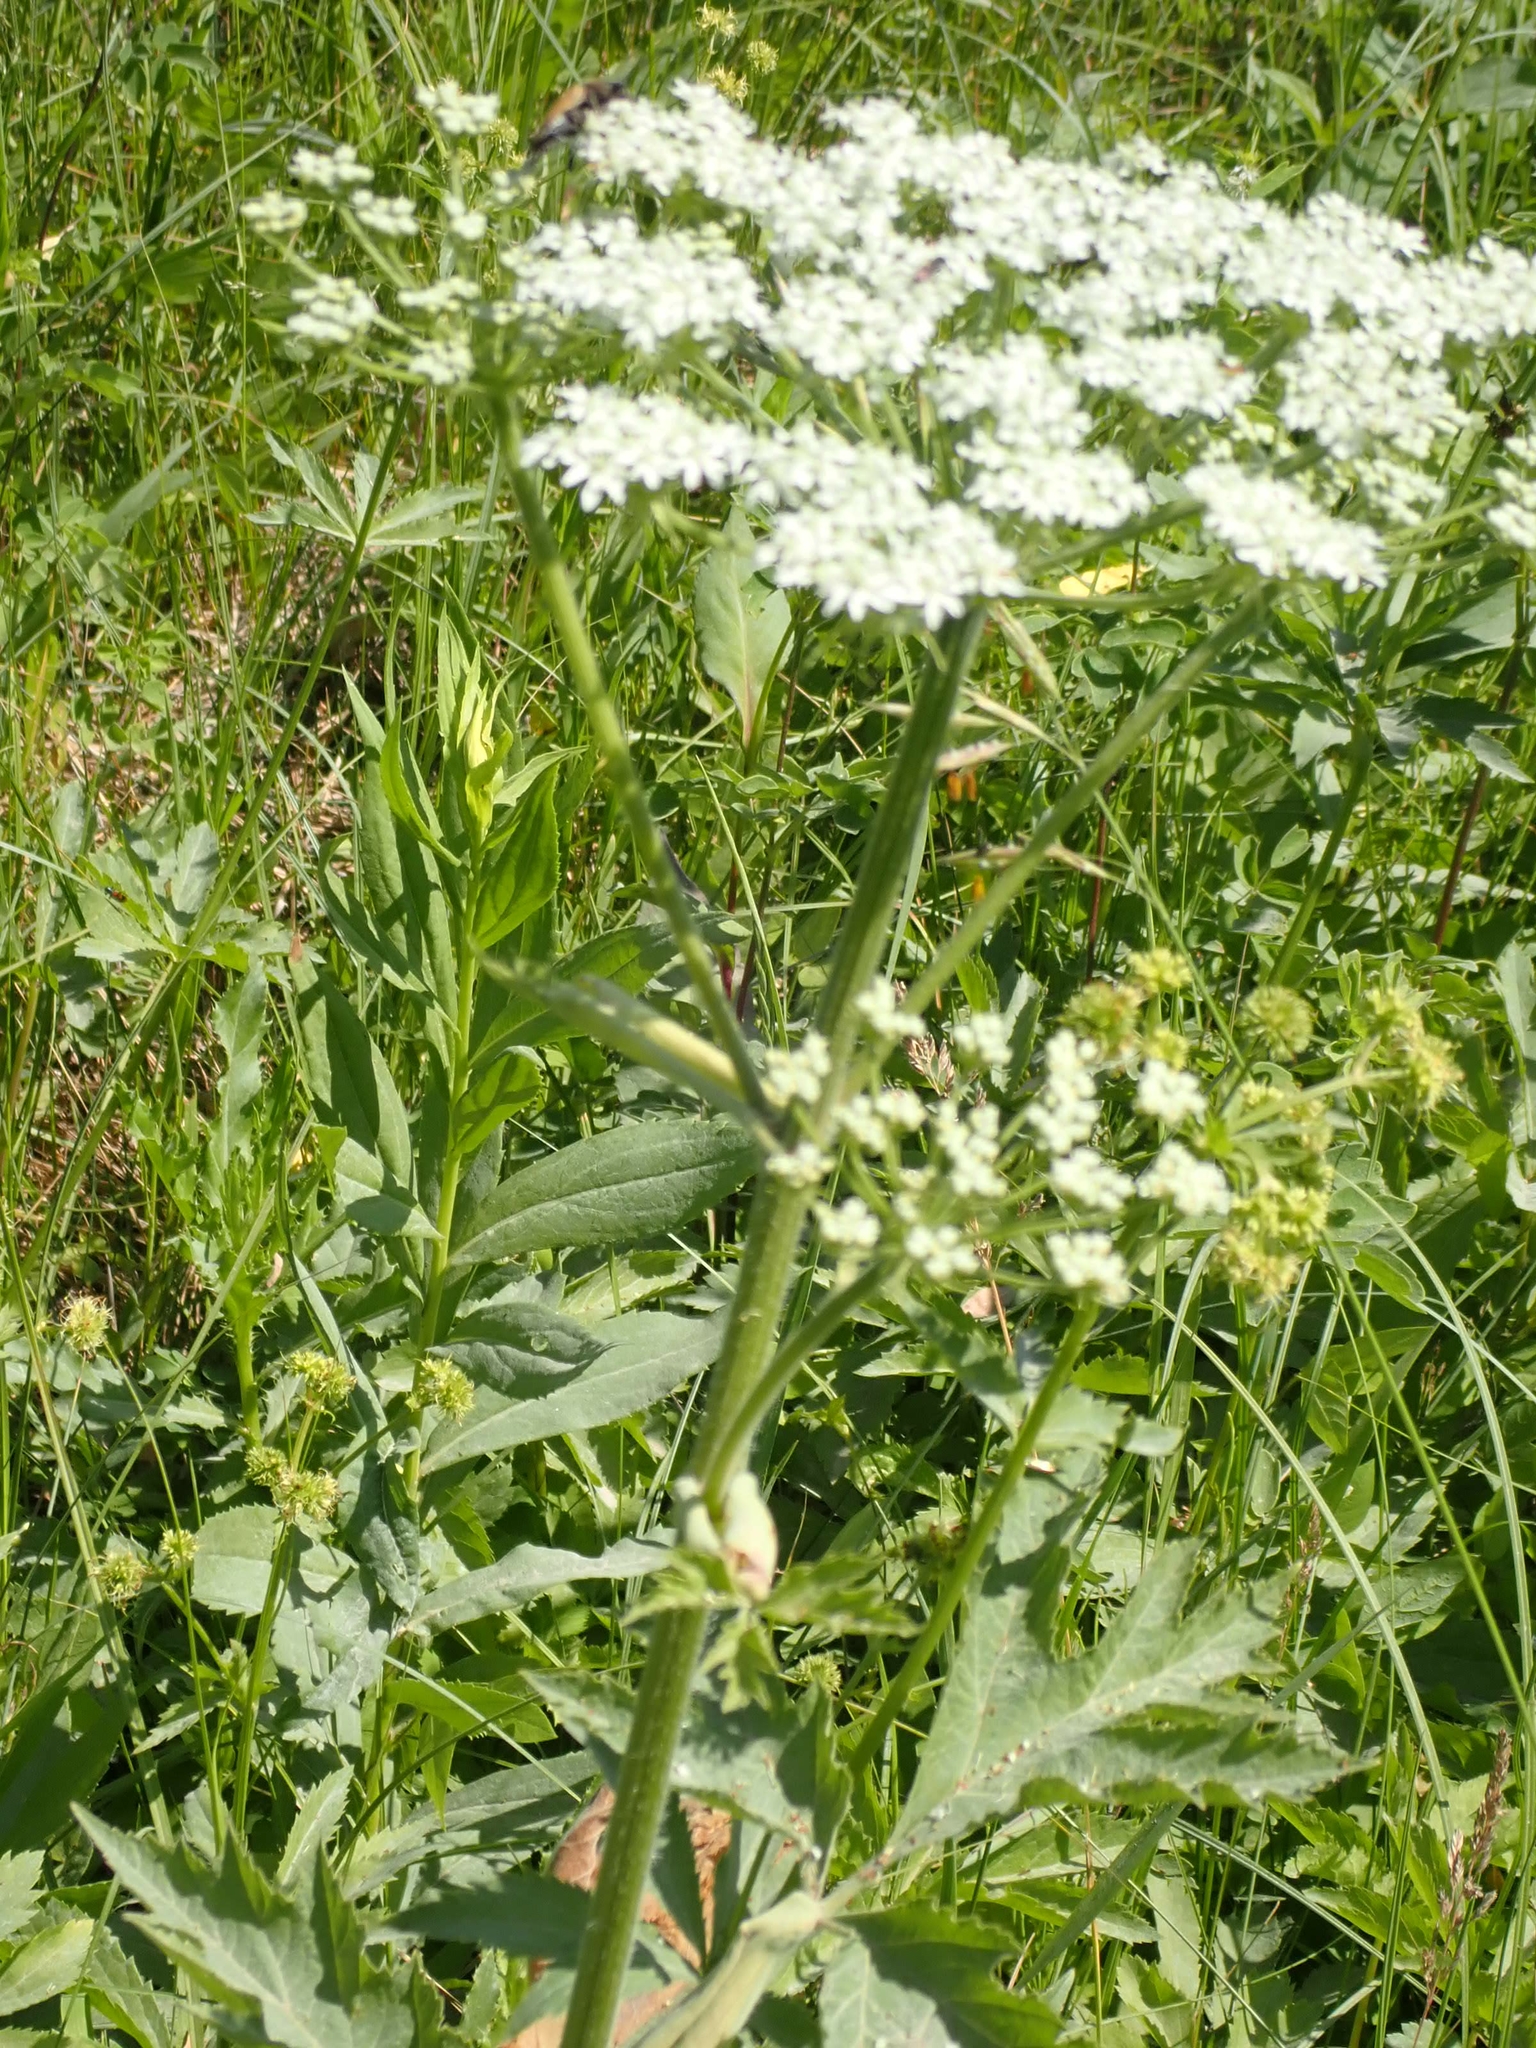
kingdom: Plantae
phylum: Tracheophyta
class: Magnoliopsida
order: Apiales
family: Apiaceae
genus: Heracleum
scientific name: Heracleum maximum
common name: American cow parsnip
